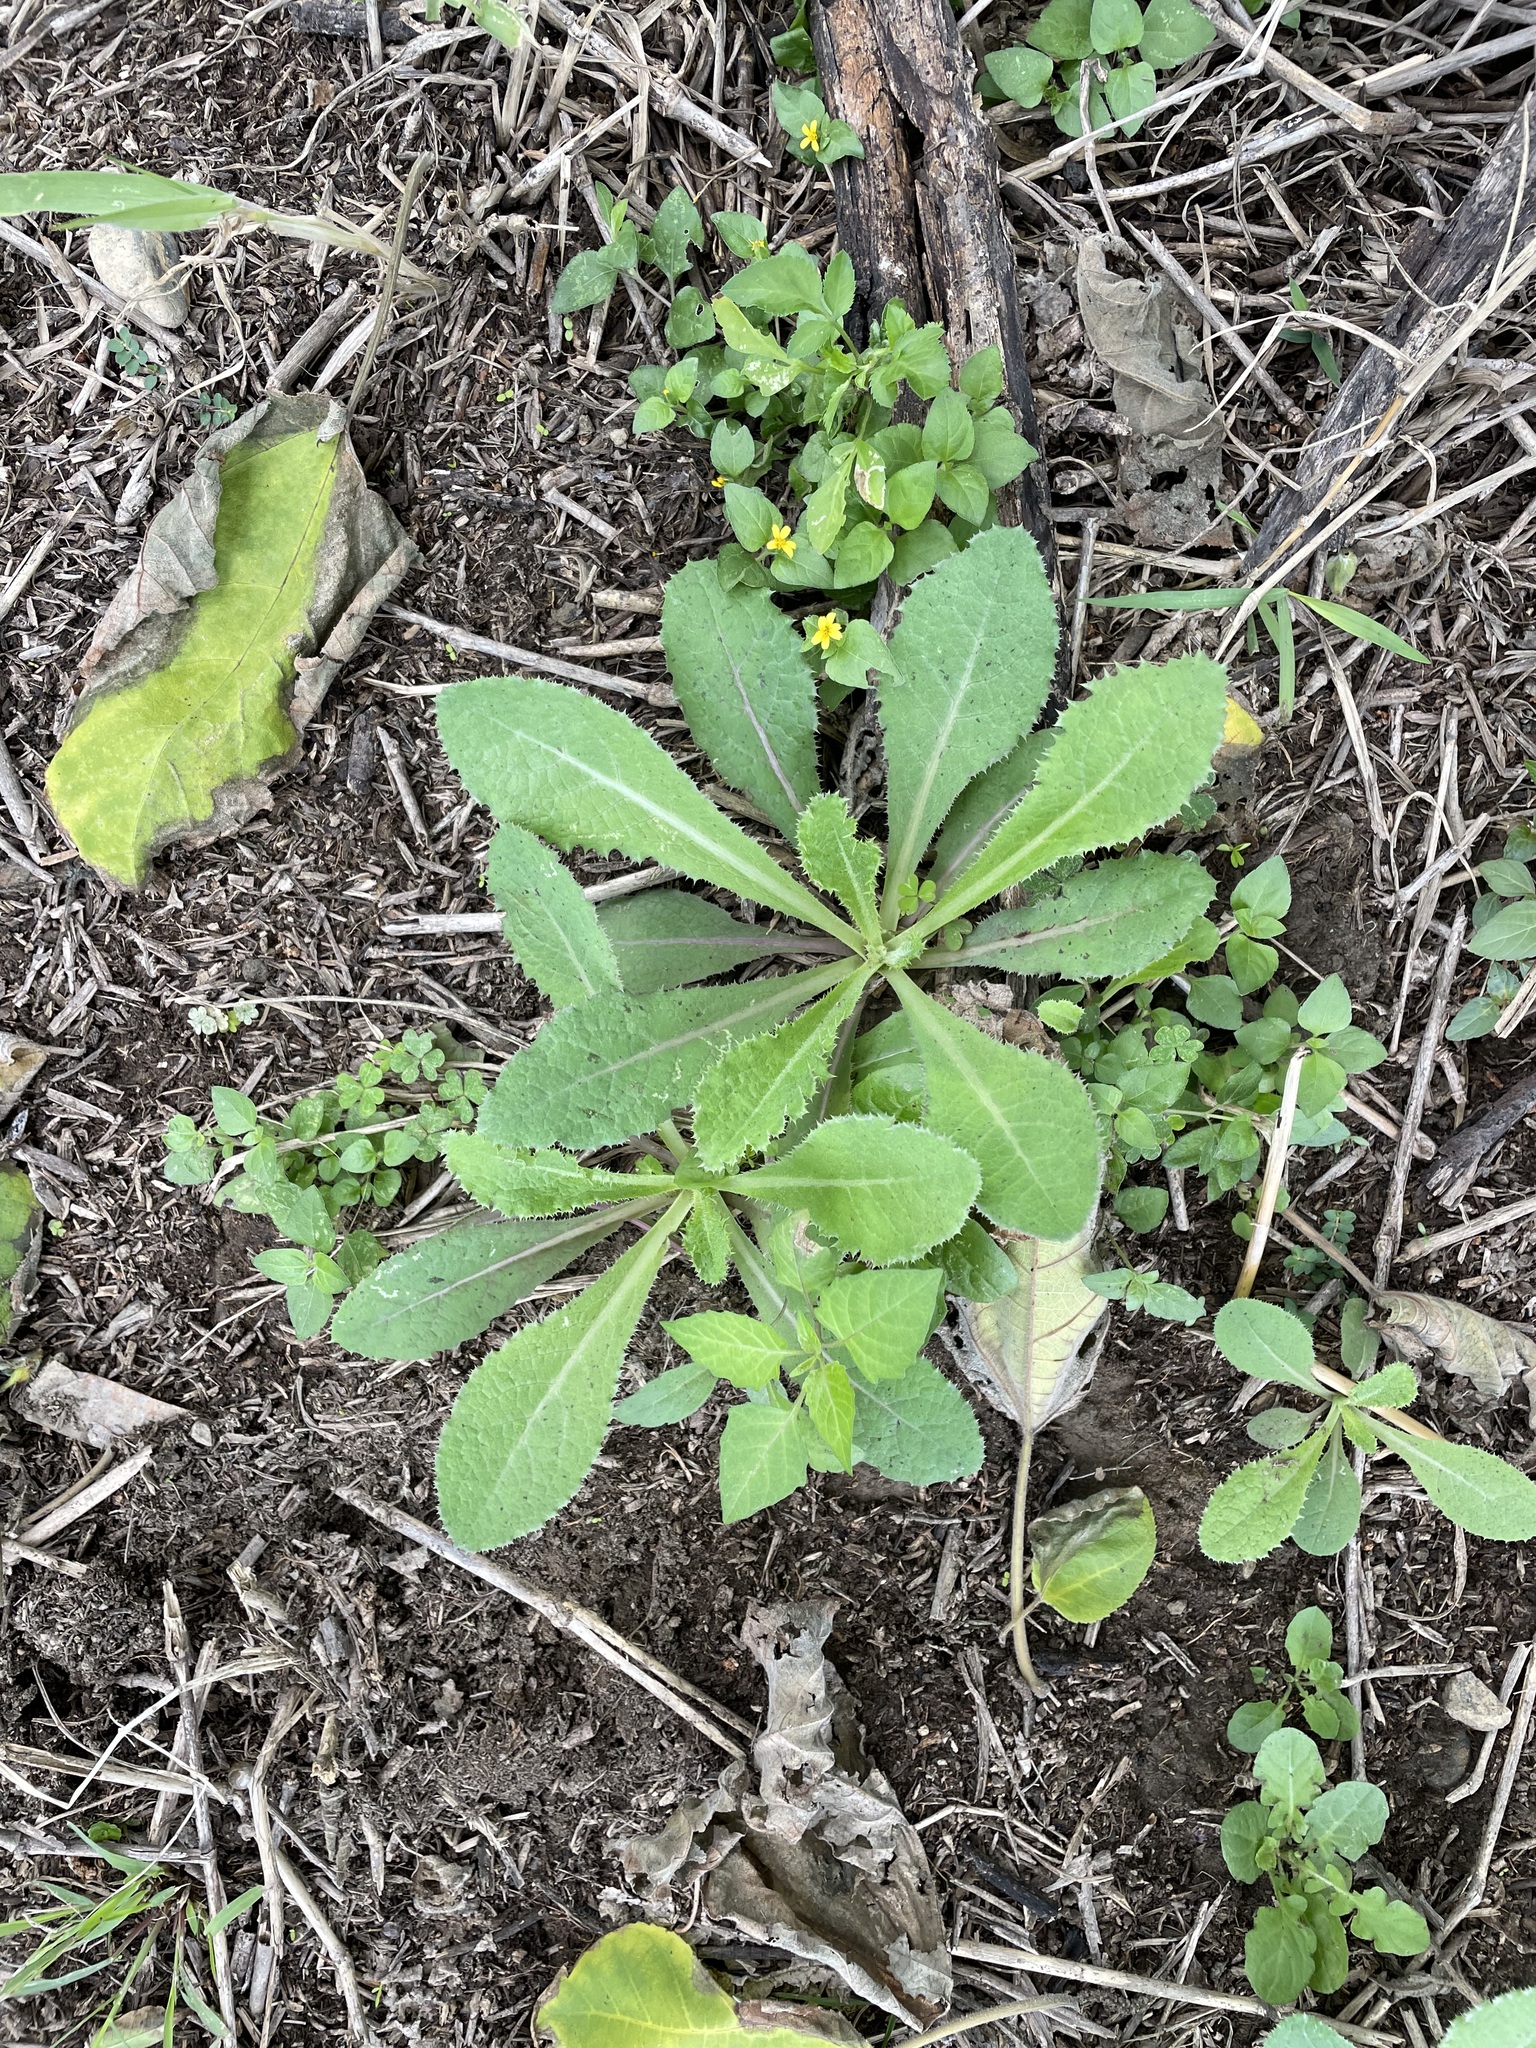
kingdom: Plantae
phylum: Tracheophyta
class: Magnoliopsida
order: Asterales
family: Asteraceae
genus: Sonchus
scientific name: Sonchus asper
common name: Prickly sow-thistle
